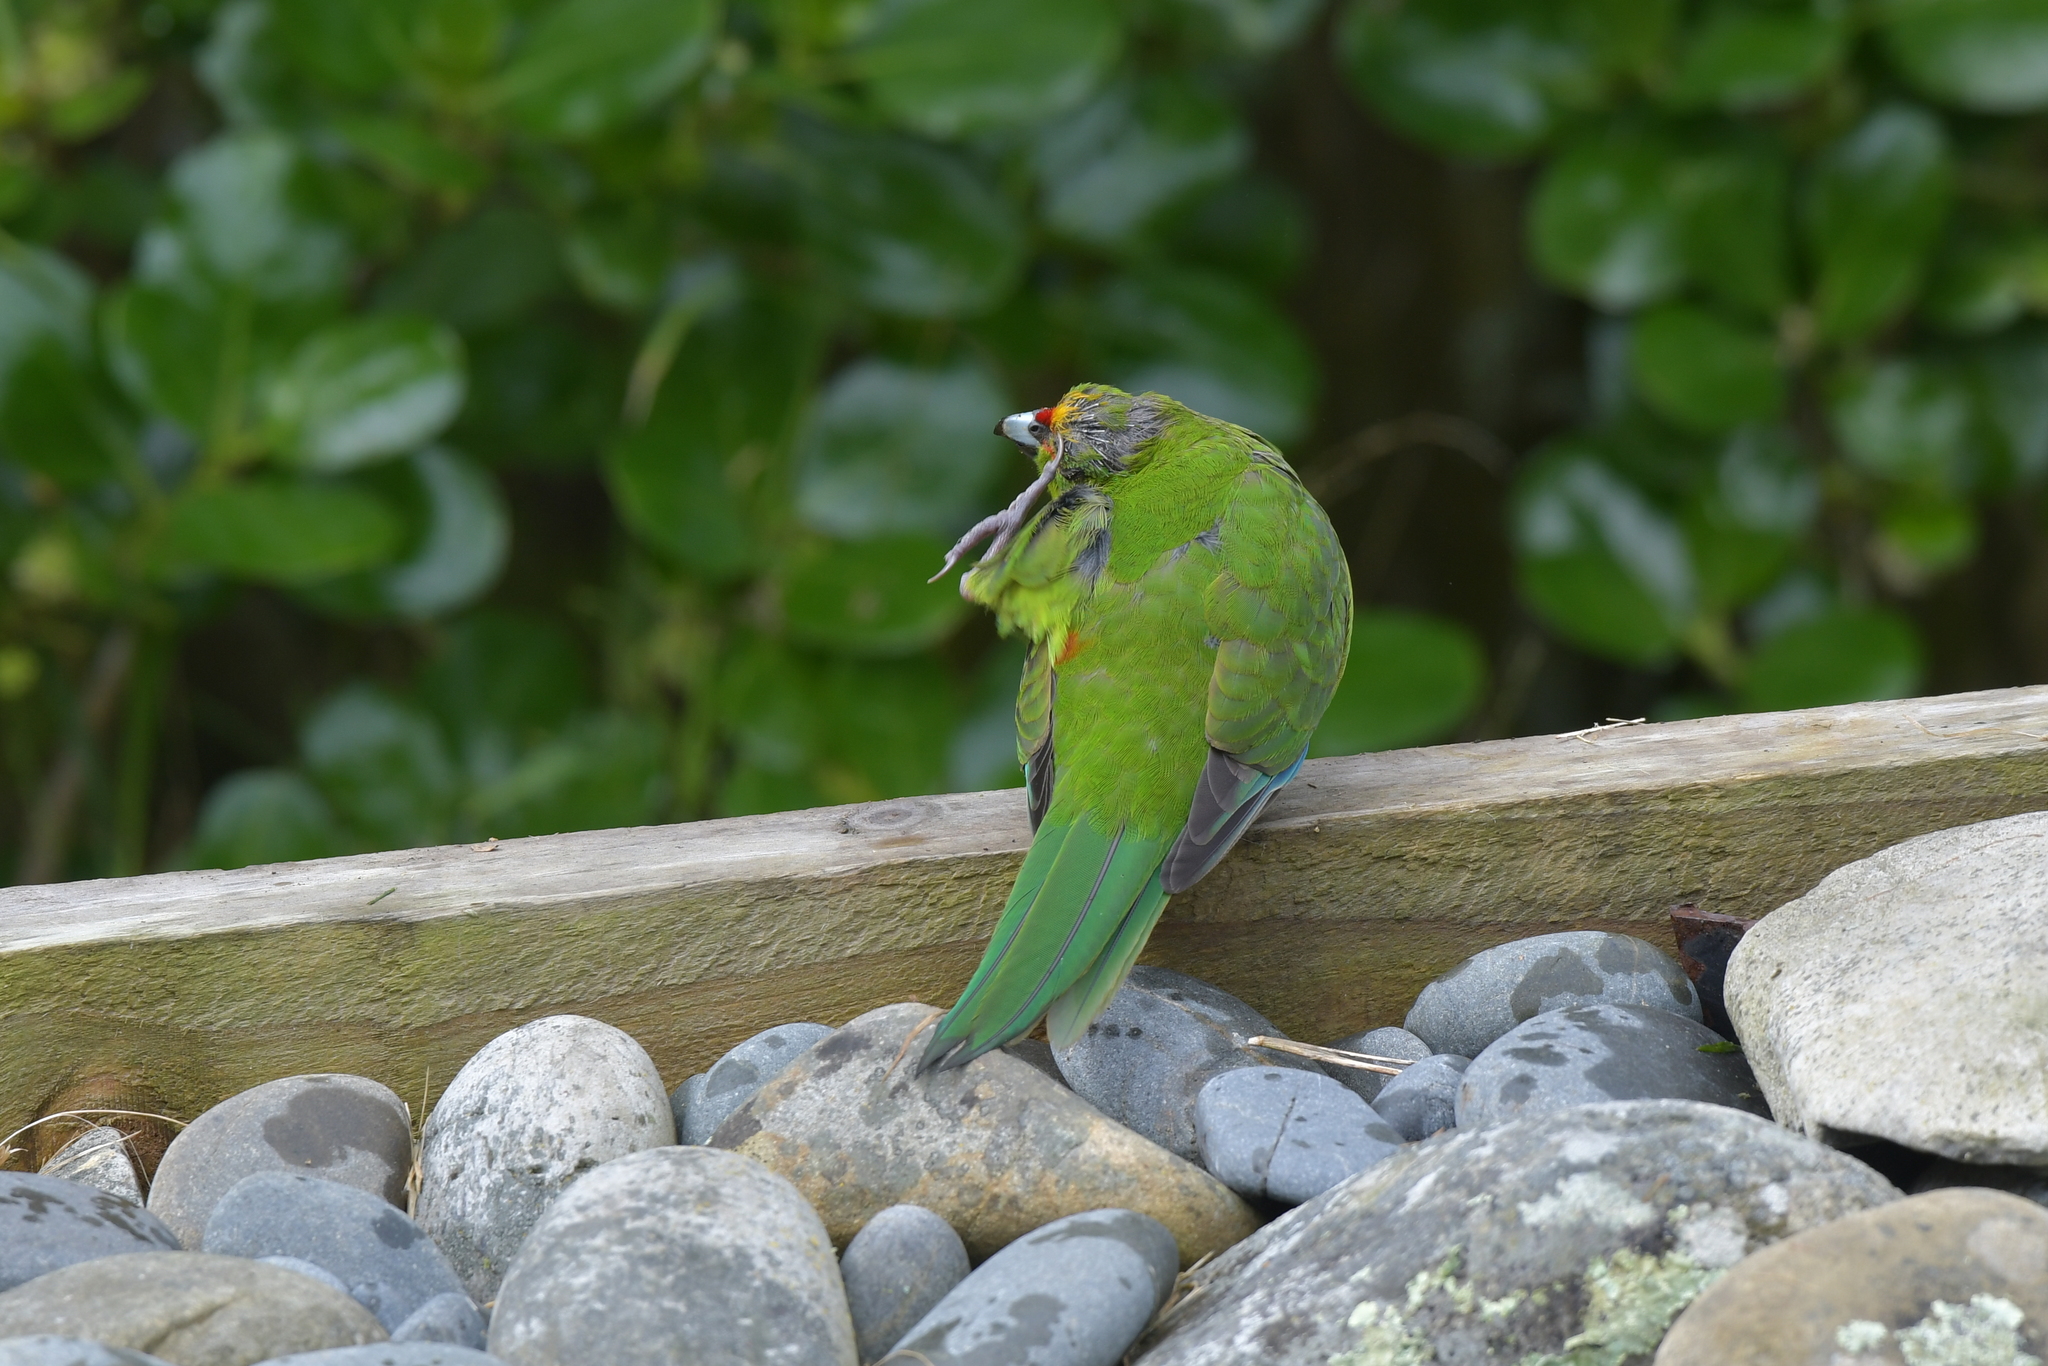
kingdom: Animalia
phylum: Chordata
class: Aves
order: Psittaciformes
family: Psittacidae
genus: Cyanoramphus
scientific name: Cyanoramphus auriceps
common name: Yellow-crowned parakeet
